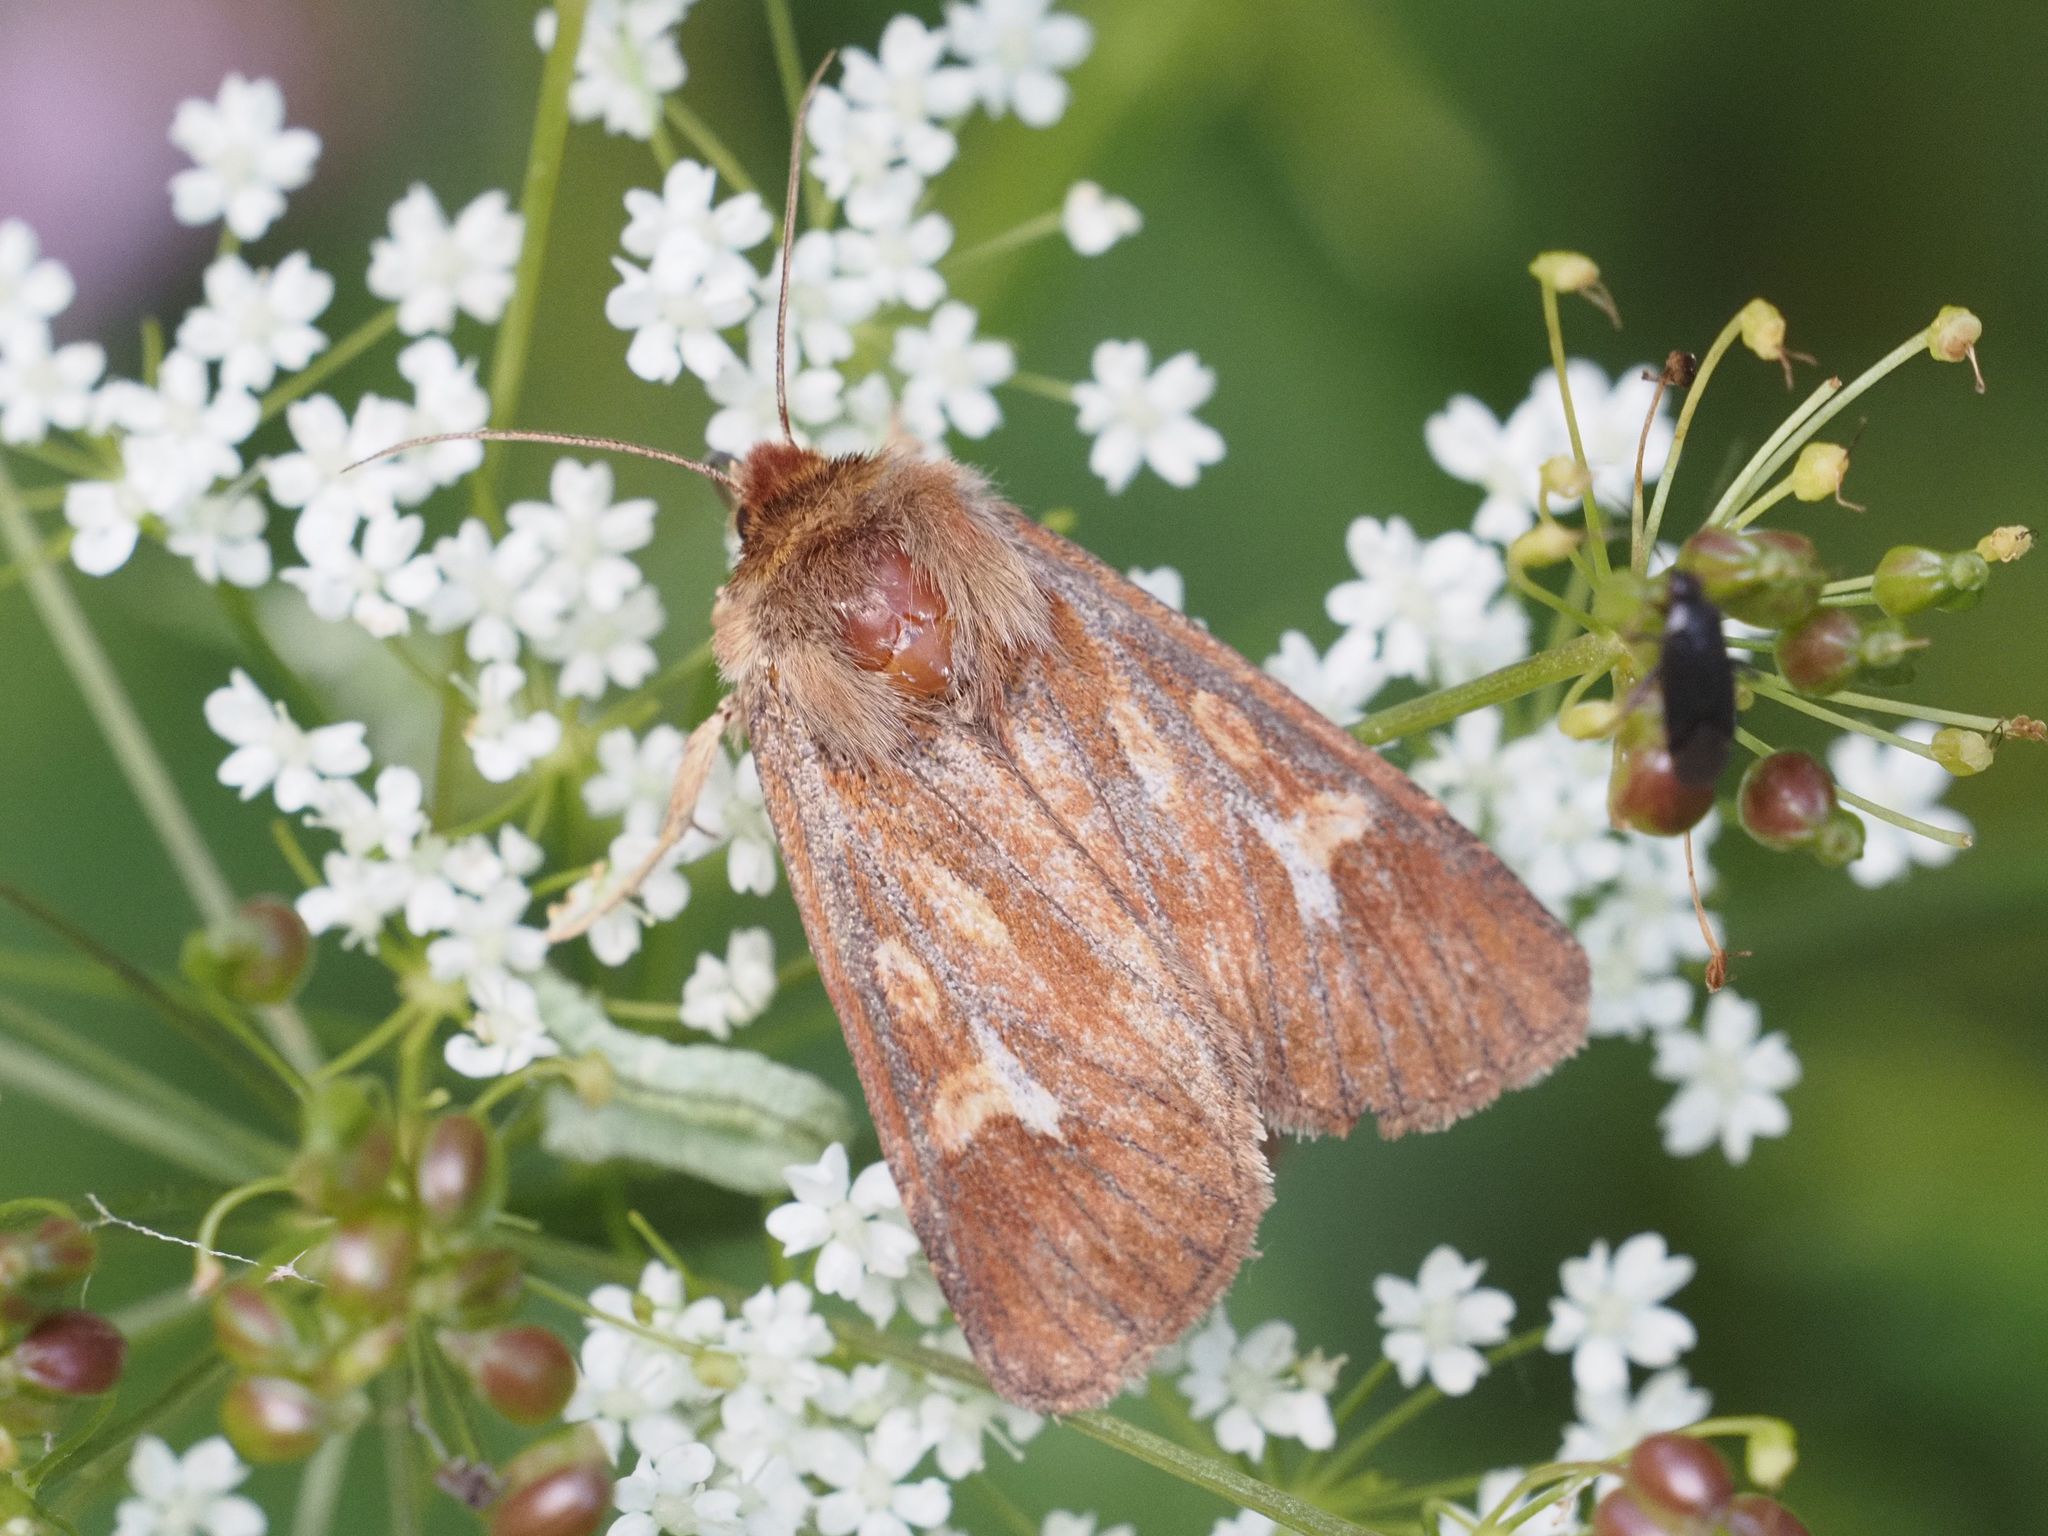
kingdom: Animalia
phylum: Arthropoda
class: Insecta
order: Lepidoptera
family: Noctuidae
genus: Cerapteryx
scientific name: Cerapteryx graminis
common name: Antler moth
